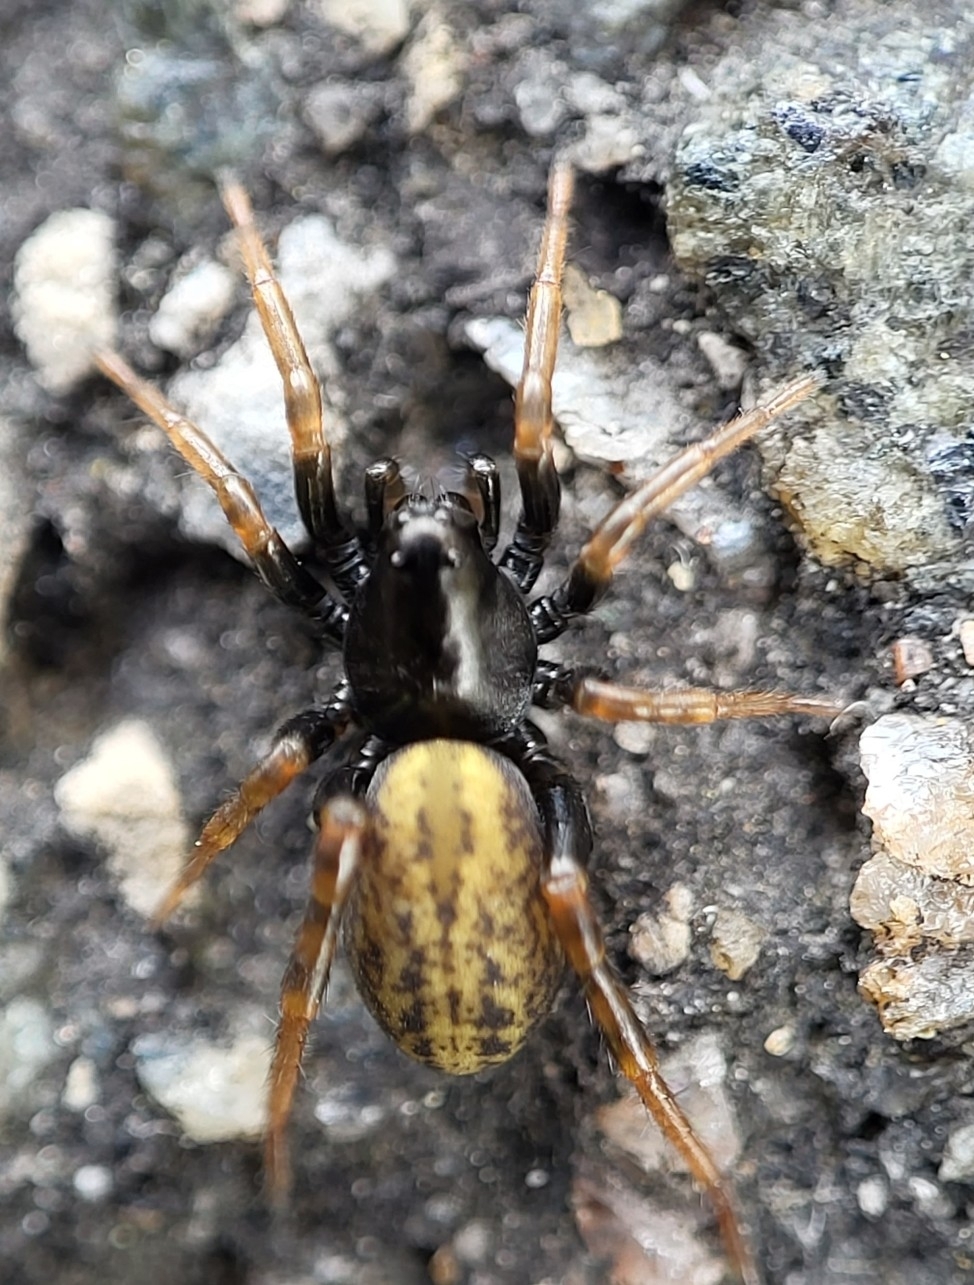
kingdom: Animalia
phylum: Arthropoda
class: Arachnida
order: Araneae
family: Lycosidae
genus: Allocosa
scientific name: Allocosa funerea
